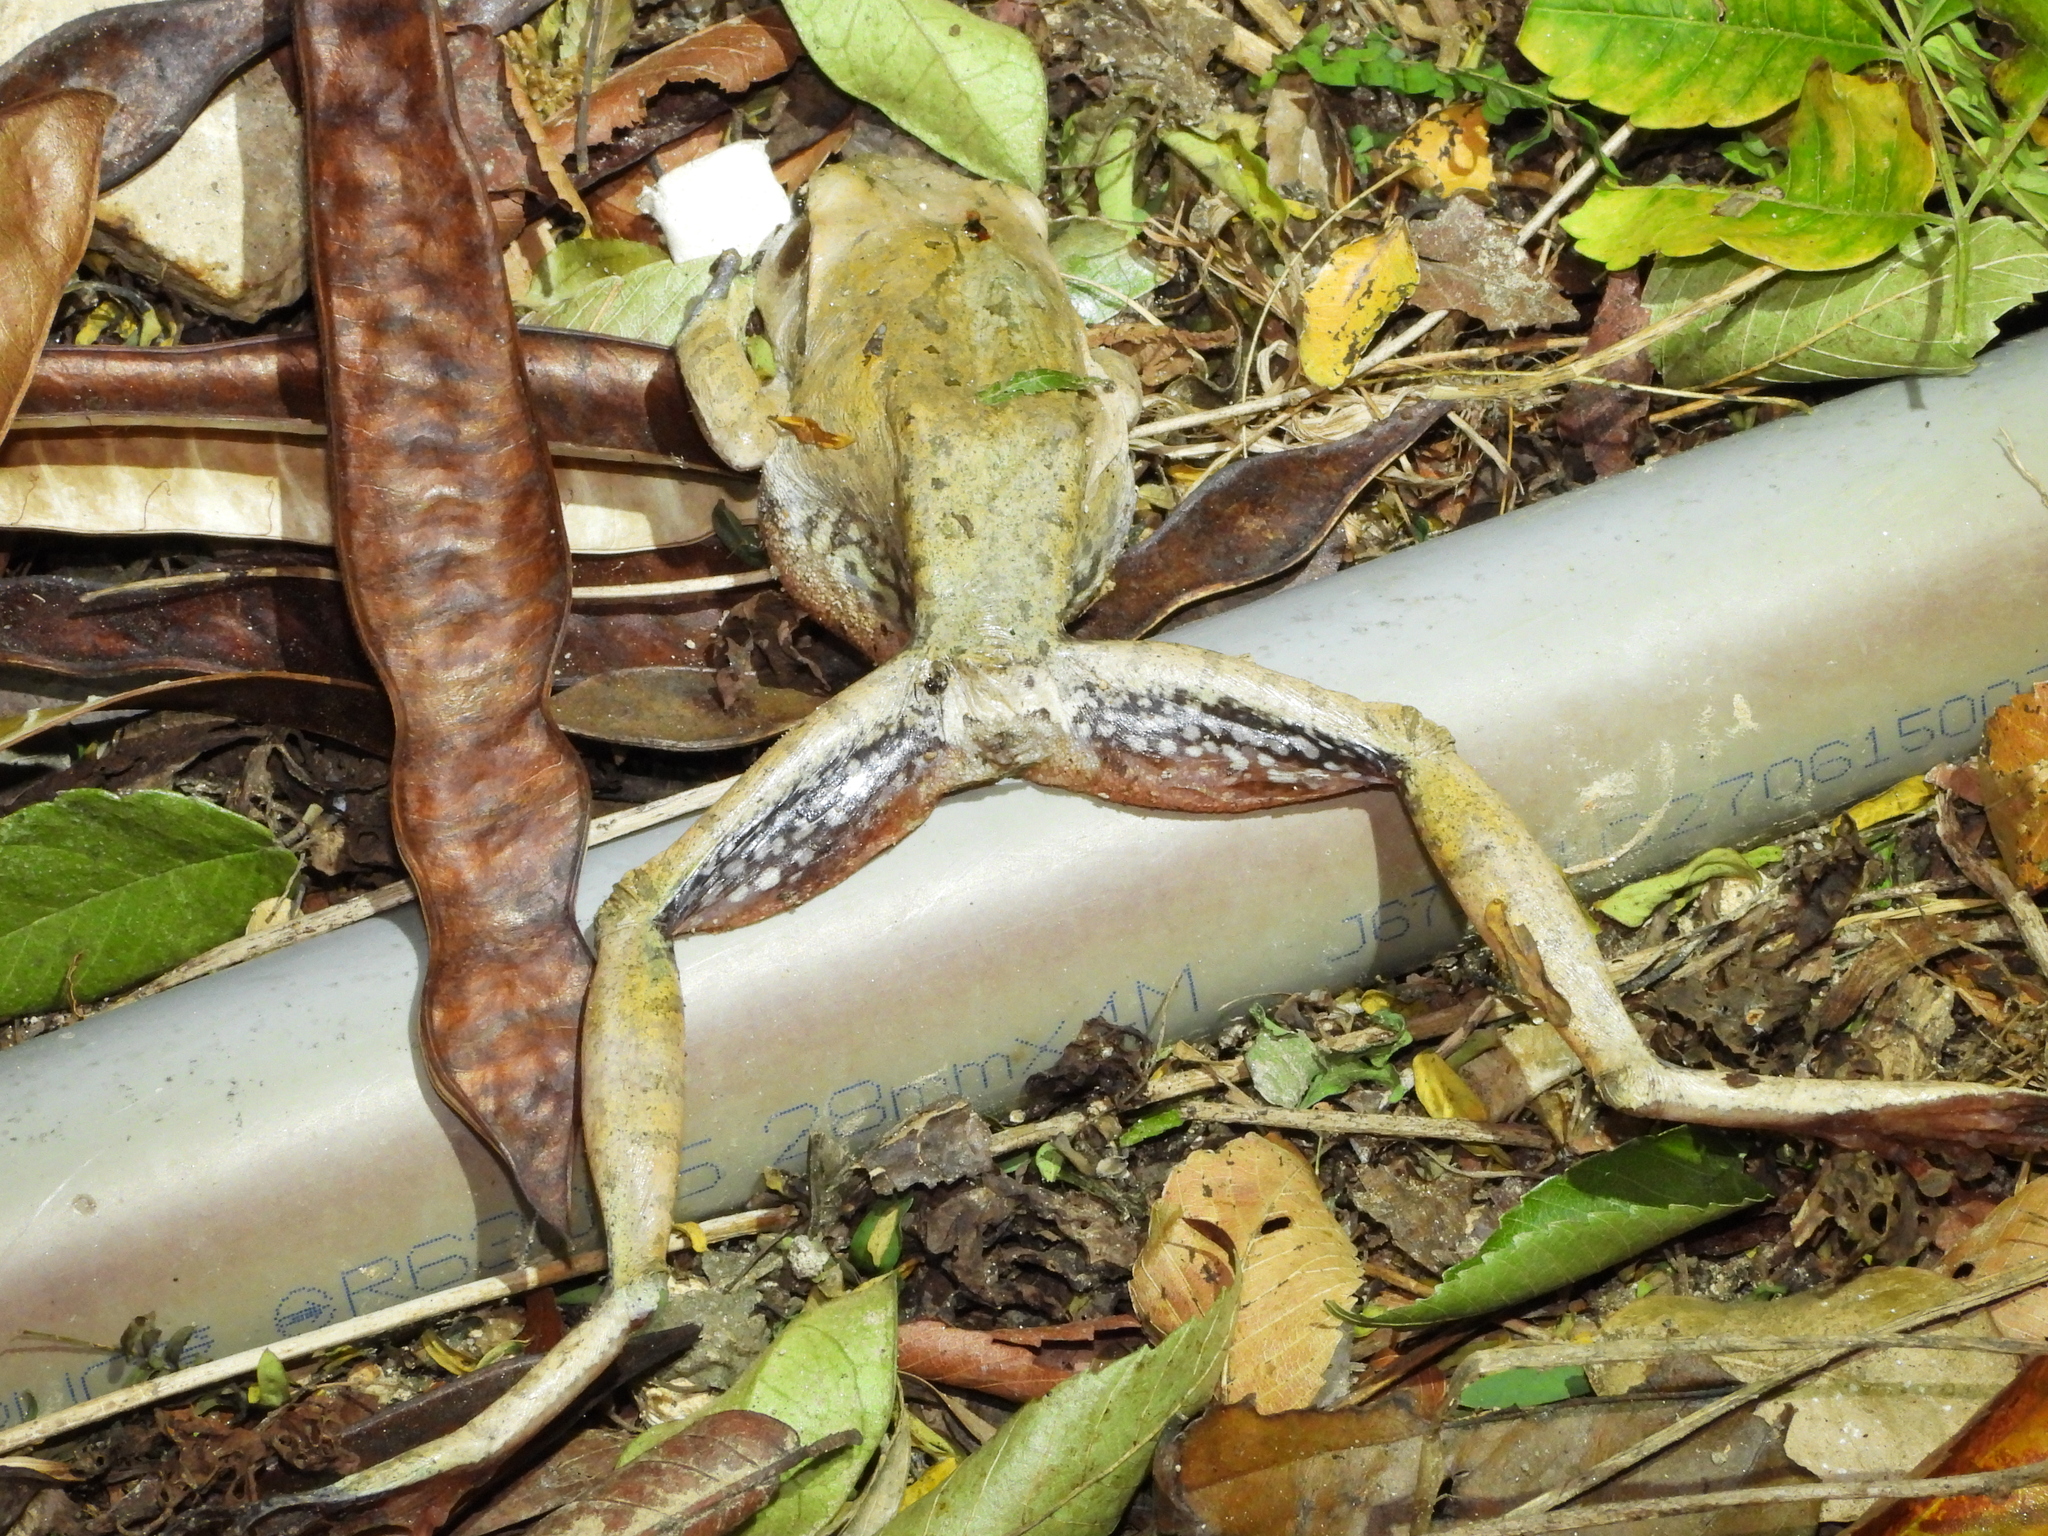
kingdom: Animalia
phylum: Chordata
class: Amphibia
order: Anura
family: Rhacophoridae
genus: Polypedates
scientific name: Polypedates megacephalus
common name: Hong kong whipping frog
